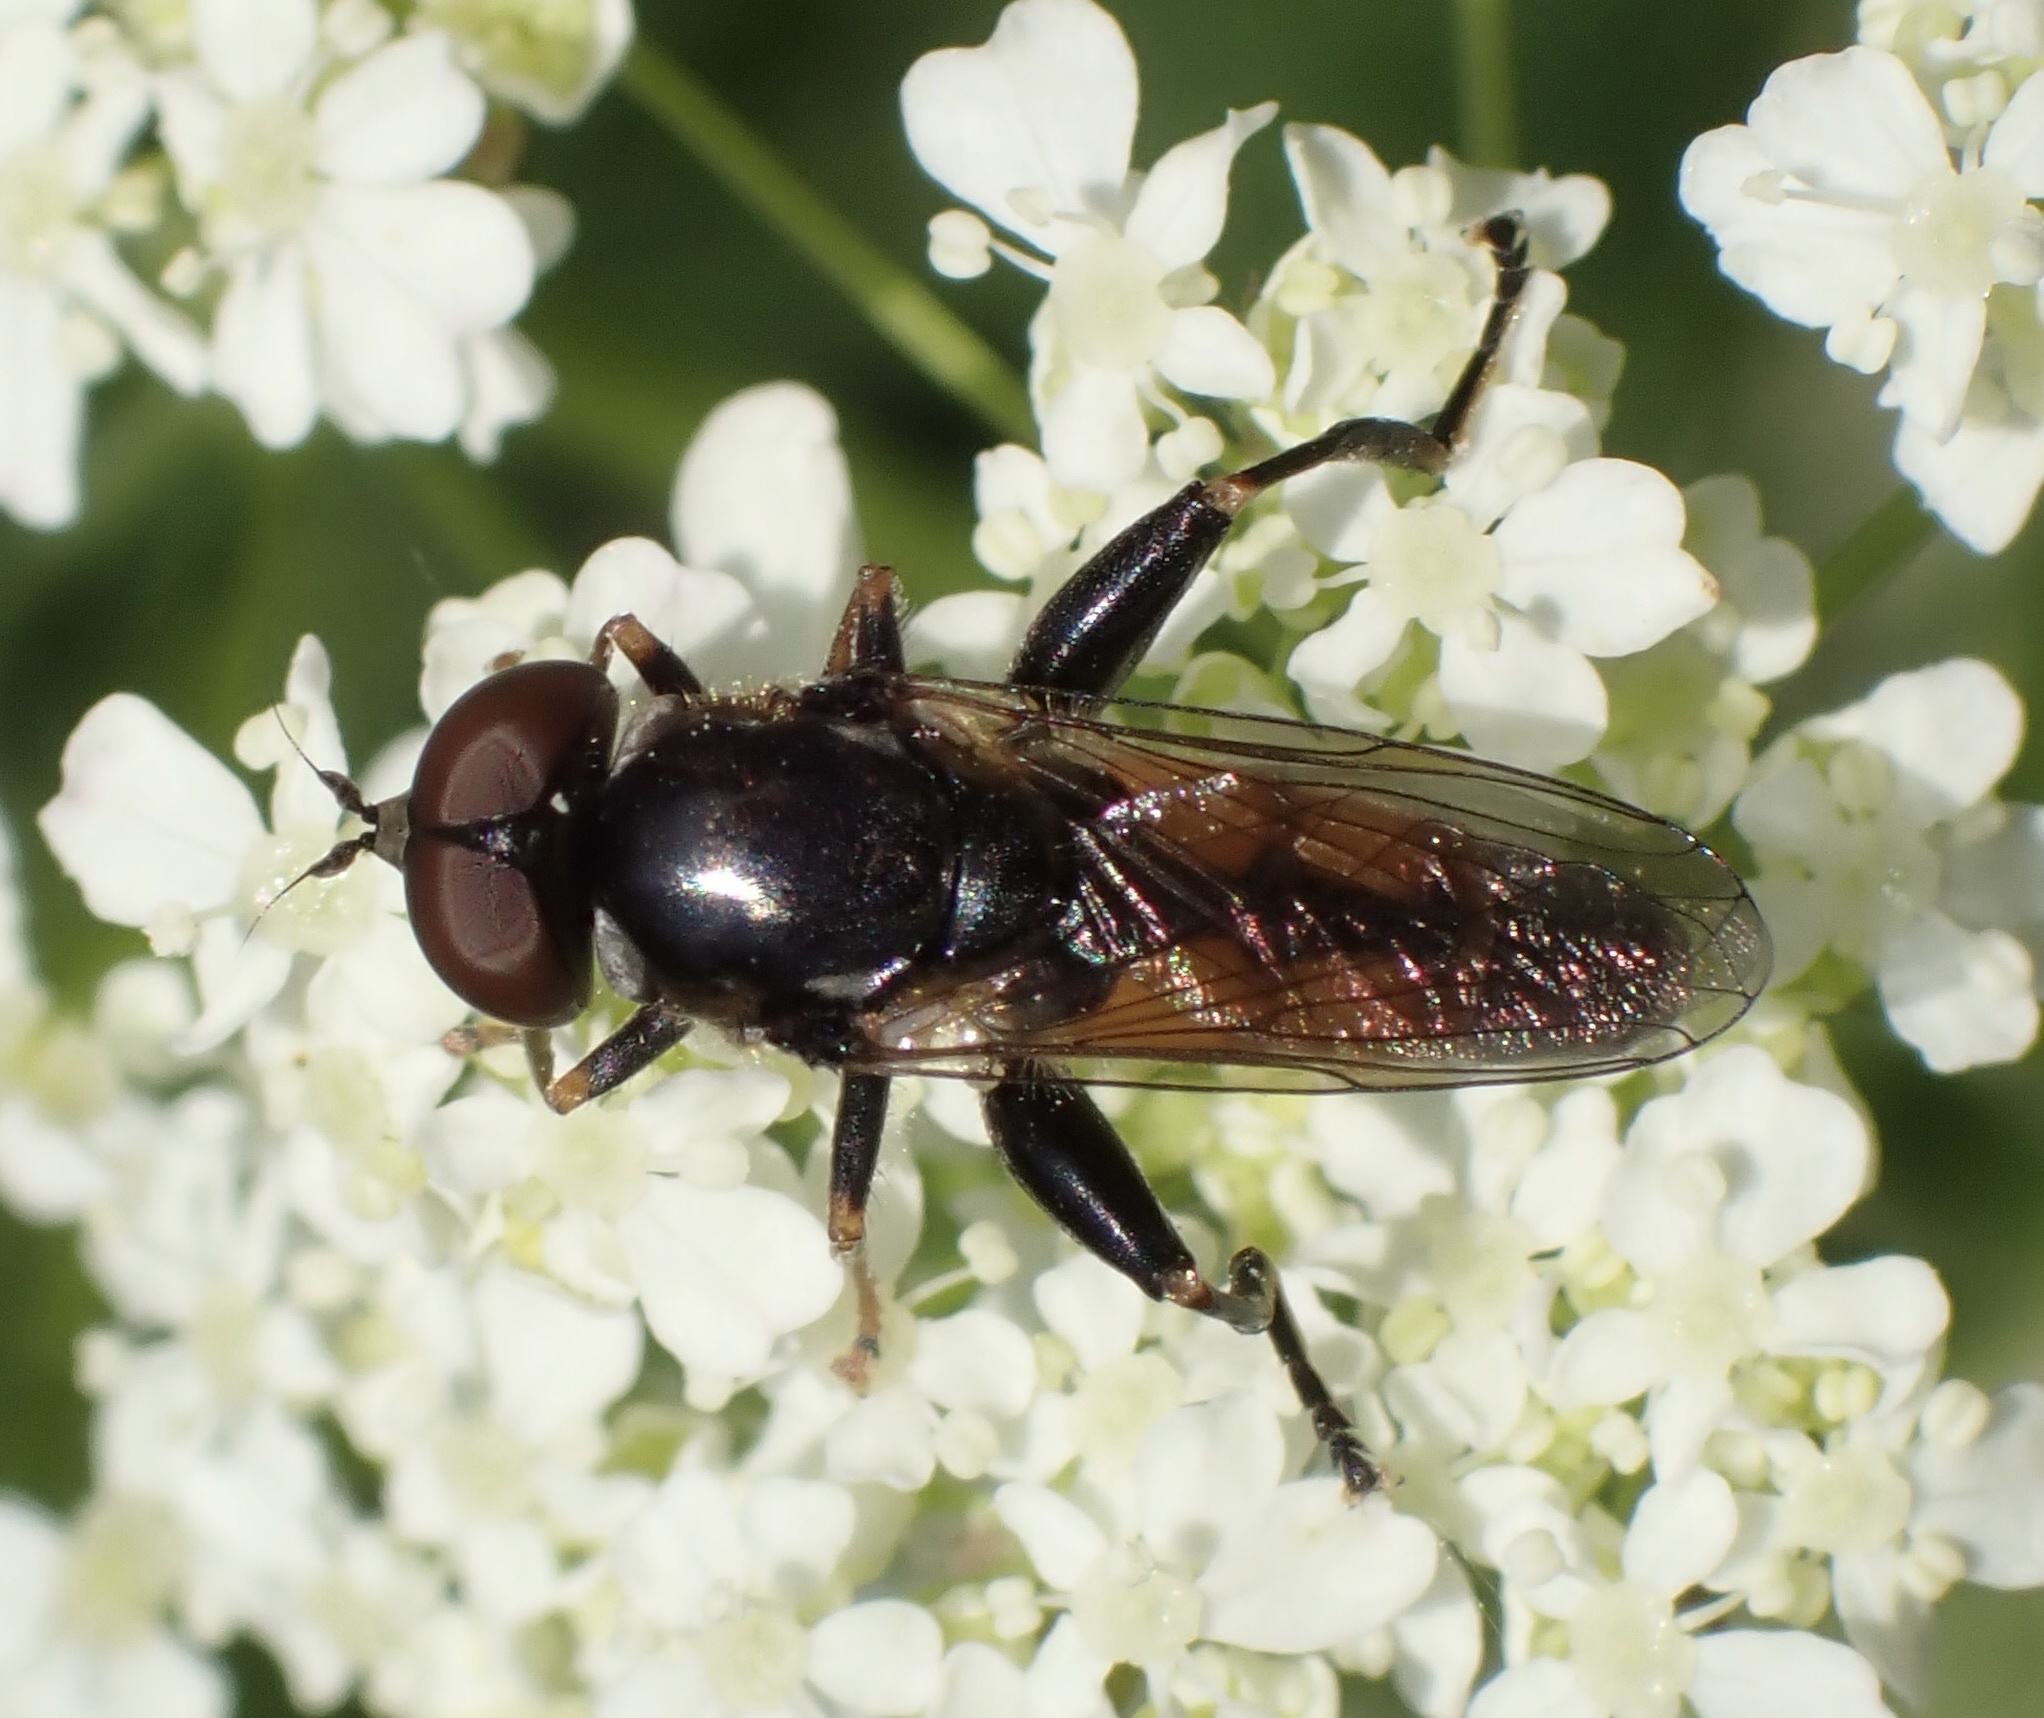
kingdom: Animalia
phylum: Arthropoda
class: Insecta
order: Diptera
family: Syrphidae
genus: Tropidia
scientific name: Tropidia scita
